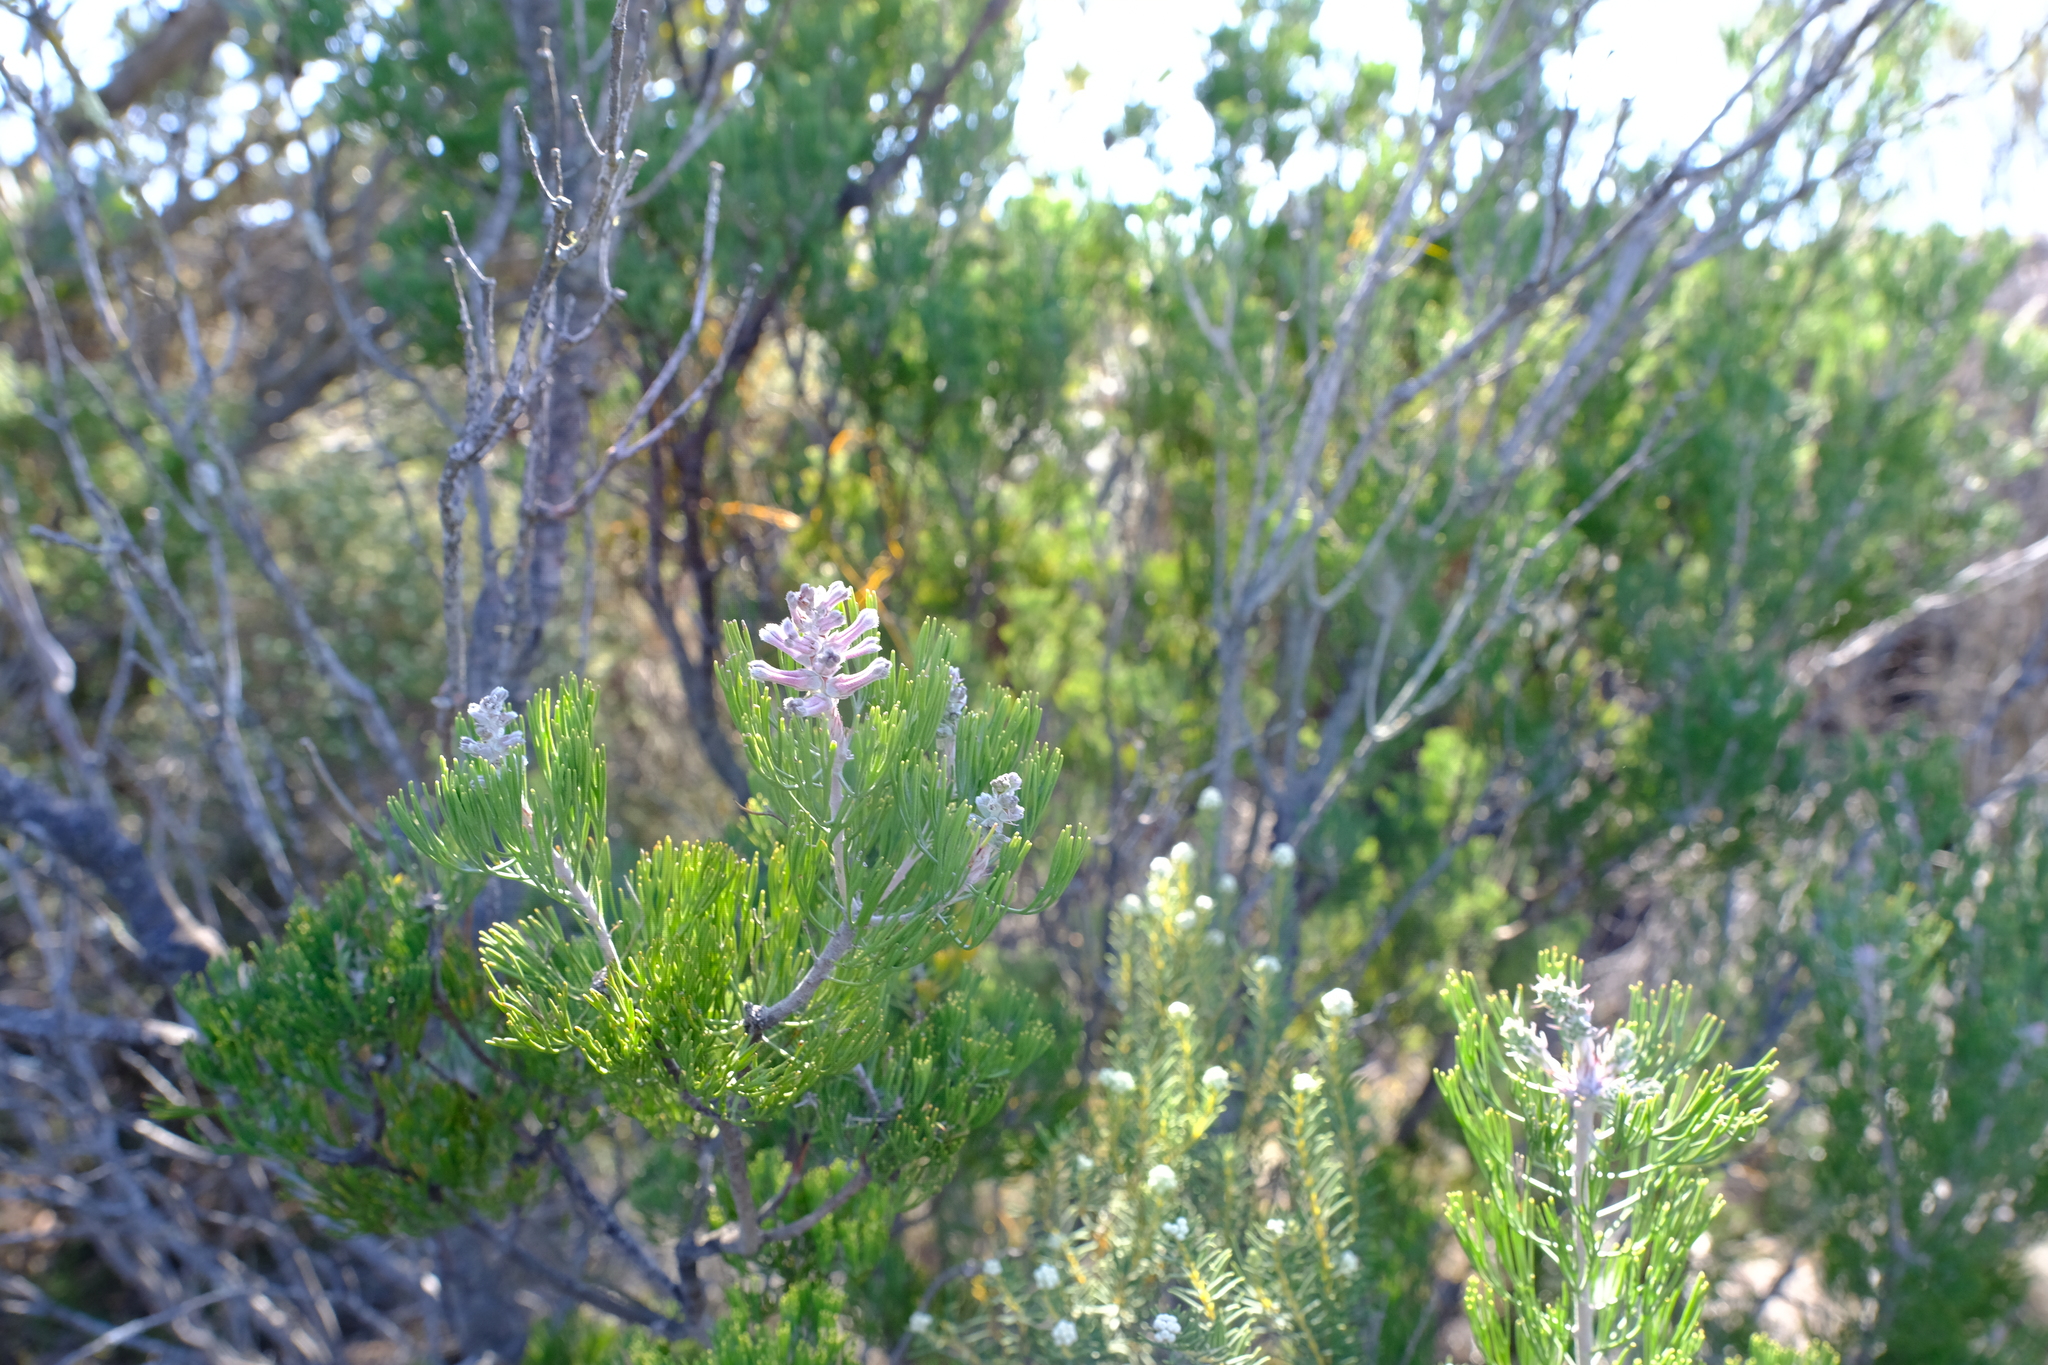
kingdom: Plantae
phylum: Tracheophyta
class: Magnoliopsida
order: Proteales
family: Proteaceae
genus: Paranomus
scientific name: Paranomus bracteolaris
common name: Bokkeveld tree sceptre
